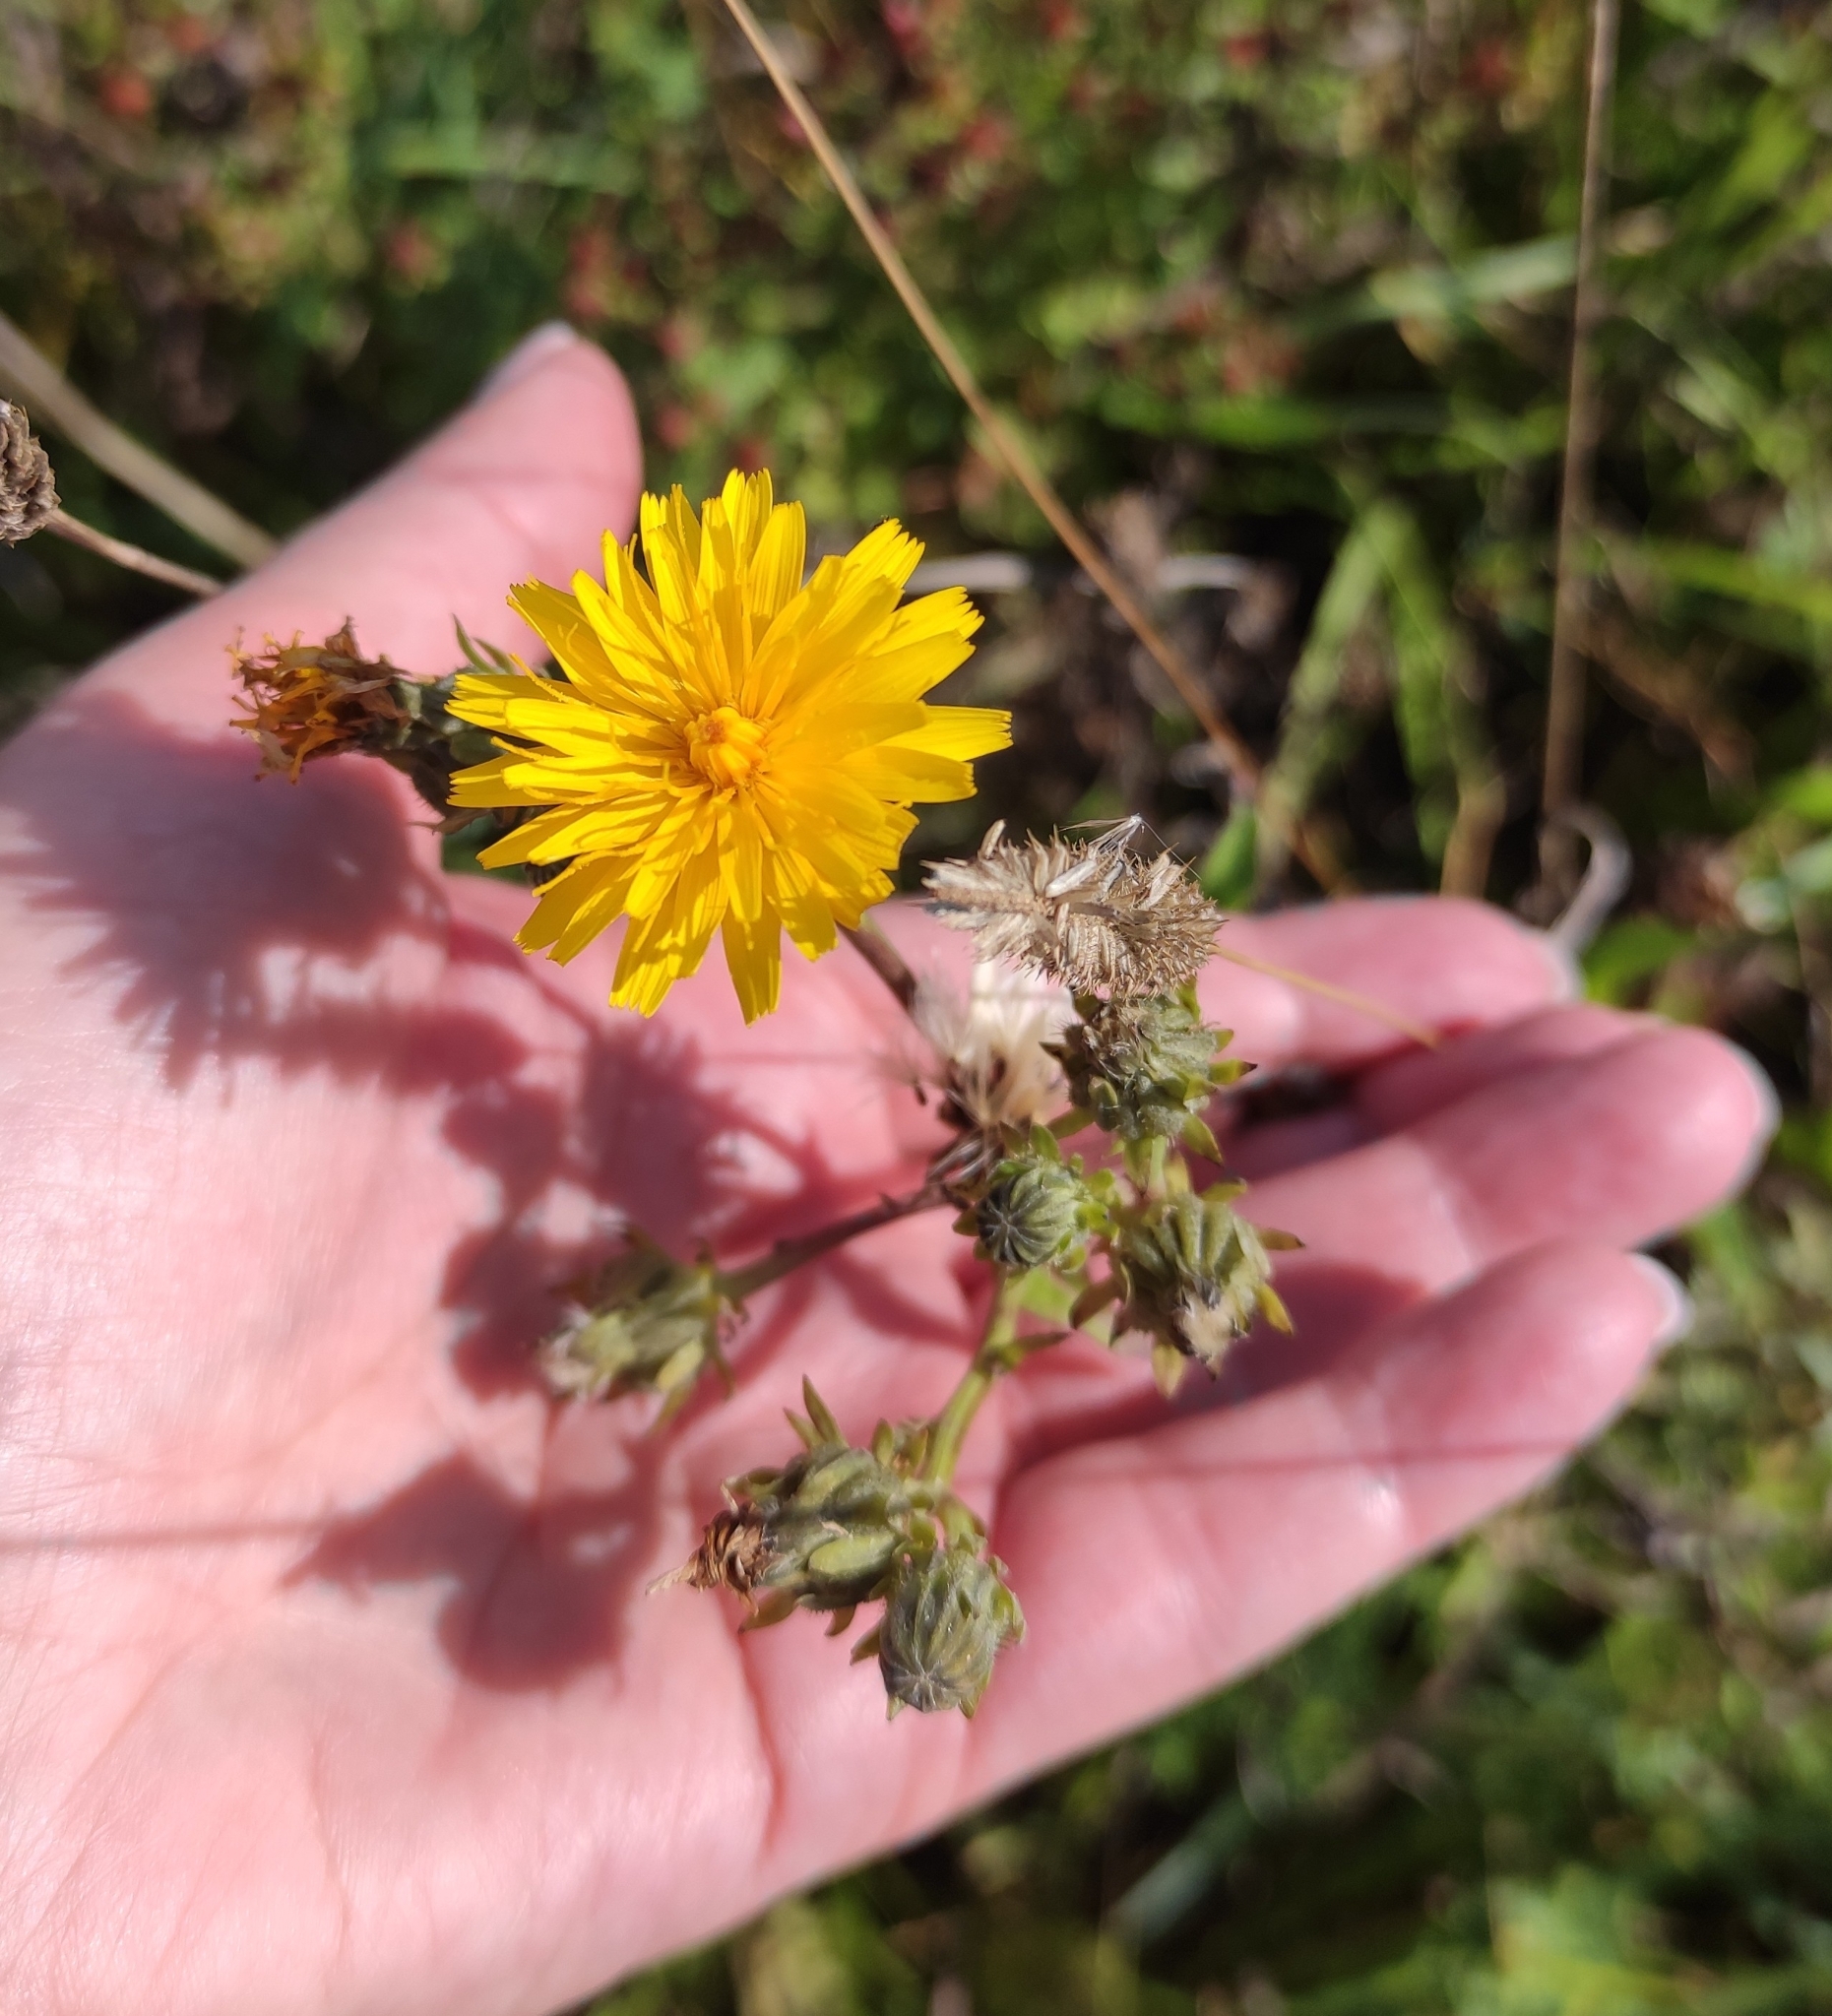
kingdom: Plantae
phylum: Tracheophyta
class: Magnoliopsida
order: Asterales
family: Asteraceae
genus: Picris
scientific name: Picris hieracioides
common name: Hawkweed oxtongue
